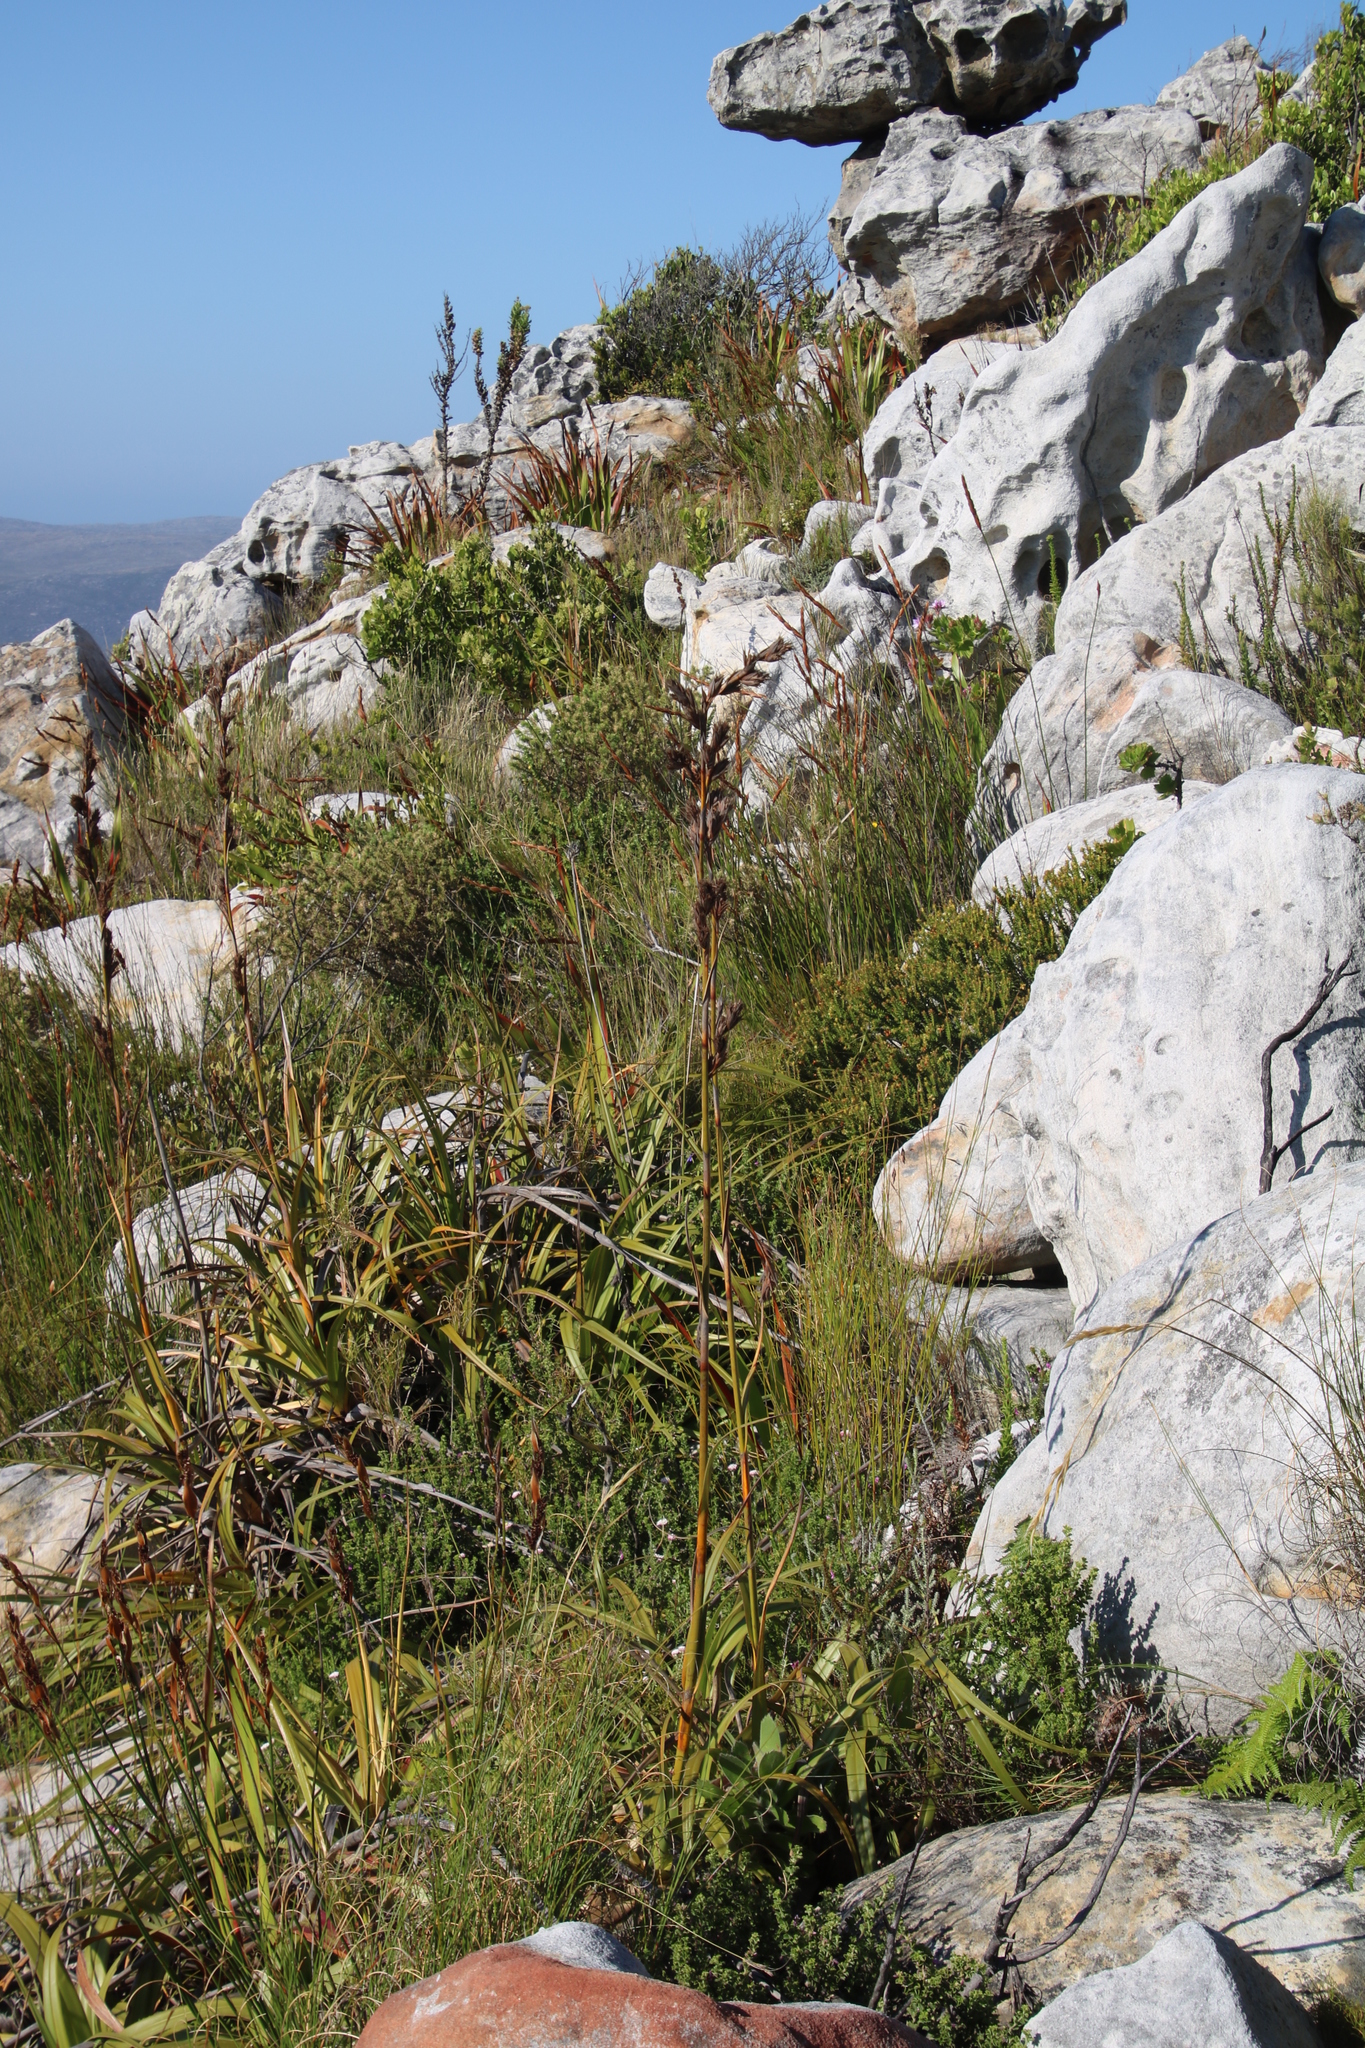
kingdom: Plantae
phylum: Tracheophyta
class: Liliopsida
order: Poales
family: Cyperaceae
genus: Tetraria
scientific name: Tetraria thermalis
